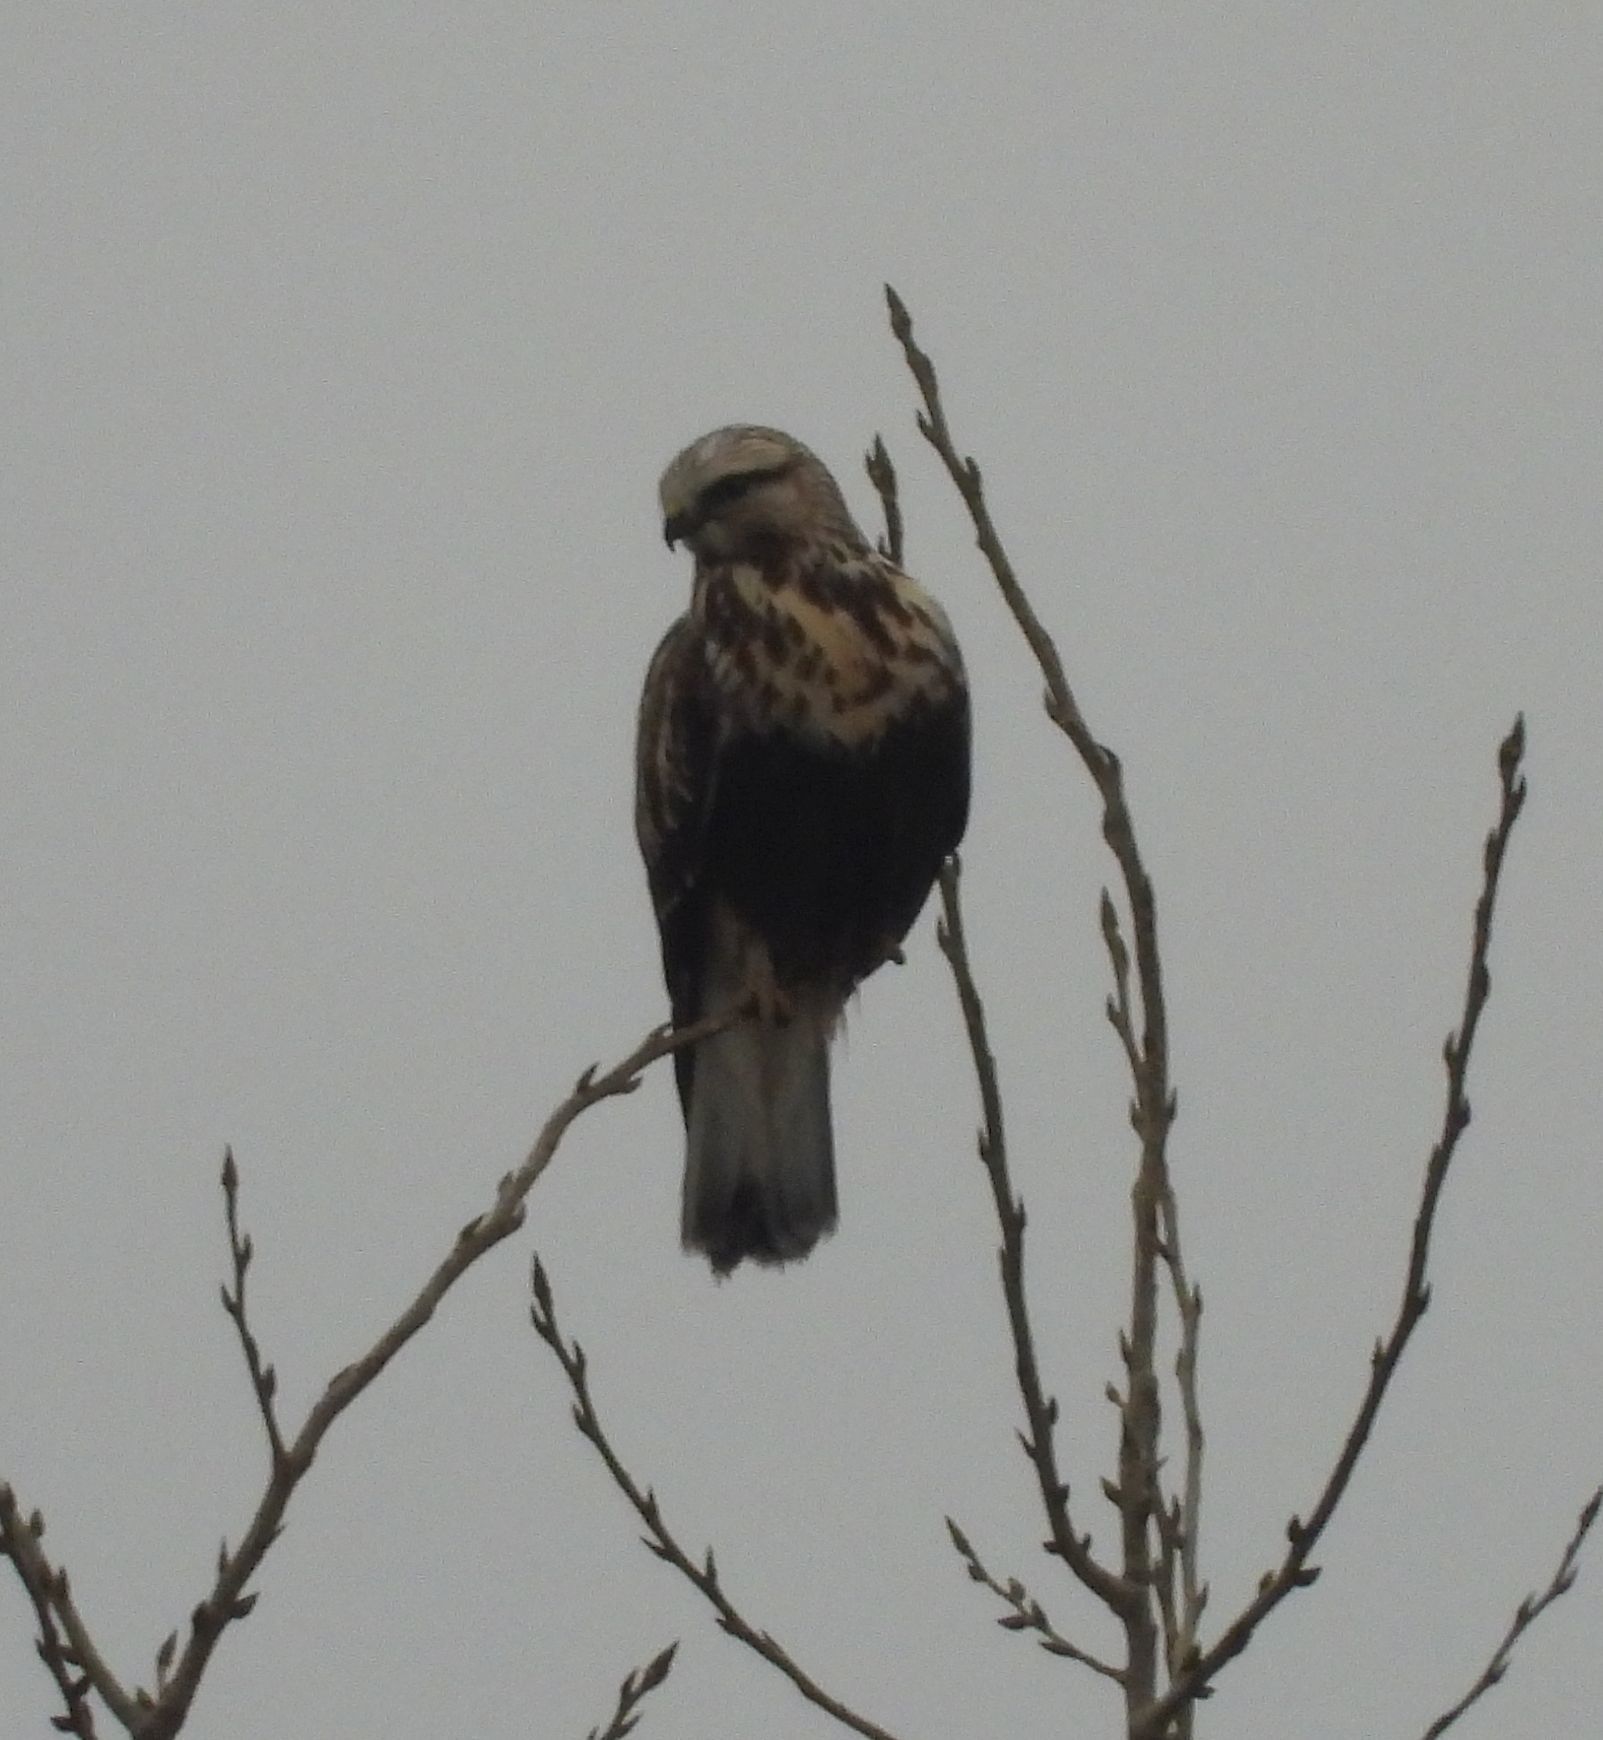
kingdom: Animalia
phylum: Chordata
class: Aves
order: Accipitriformes
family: Accipitridae
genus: Buteo
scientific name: Buteo lagopus
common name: Rough-legged buzzard
